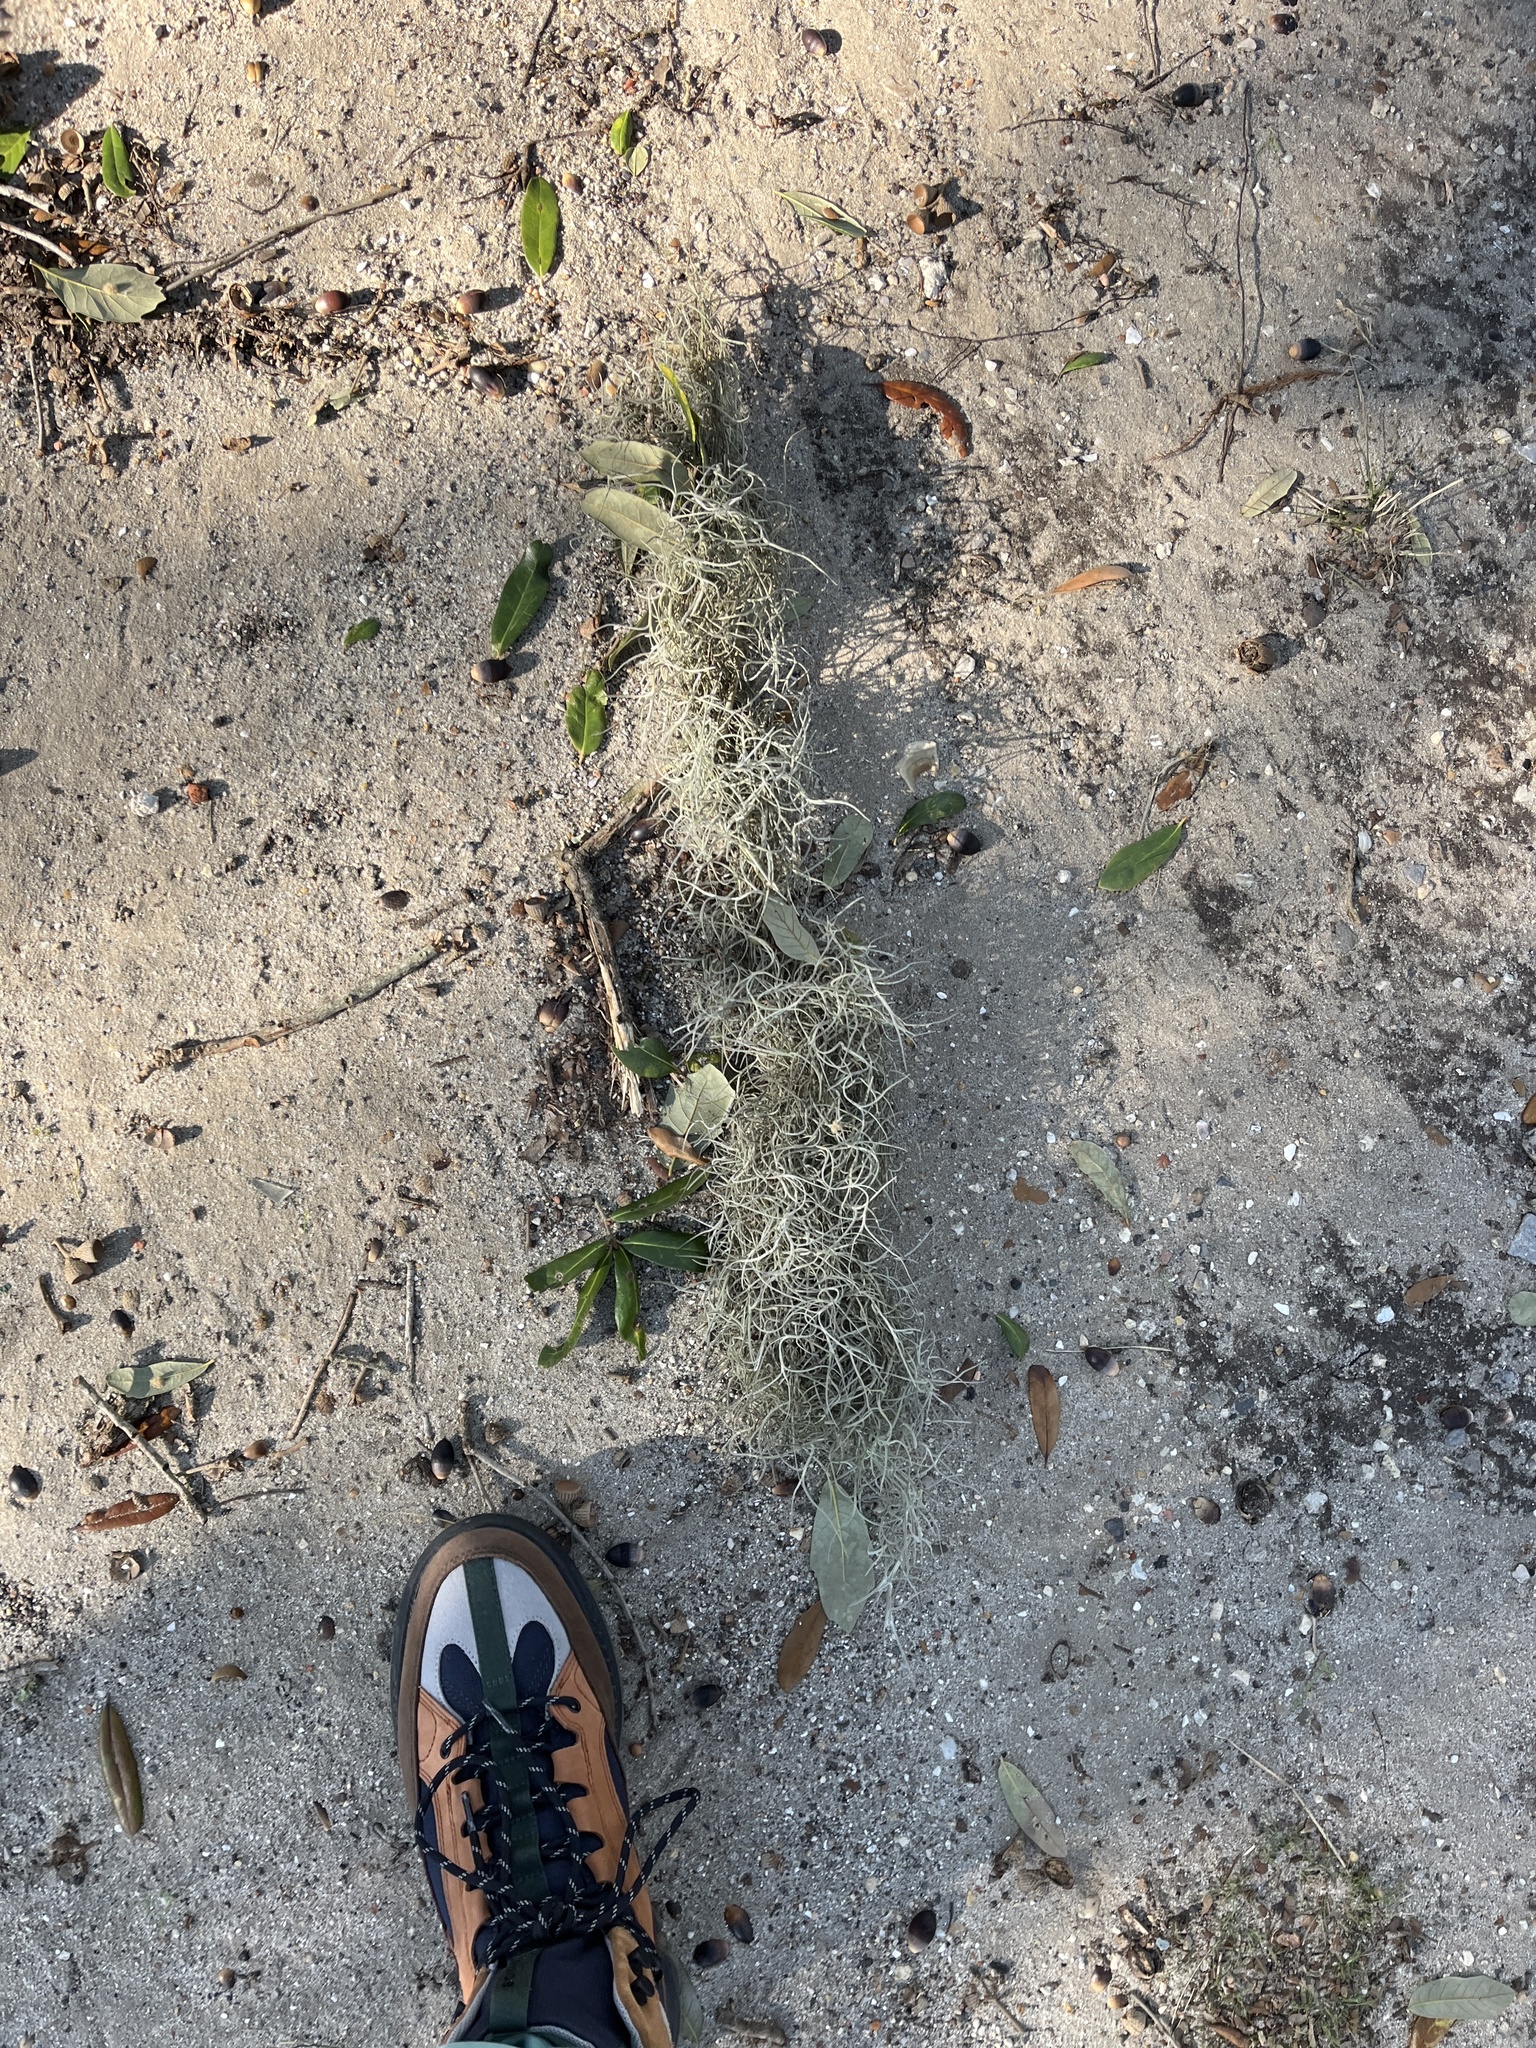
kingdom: Plantae
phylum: Tracheophyta
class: Liliopsida
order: Poales
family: Bromeliaceae
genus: Tillandsia
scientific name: Tillandsia usneoides
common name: Spanish moss
